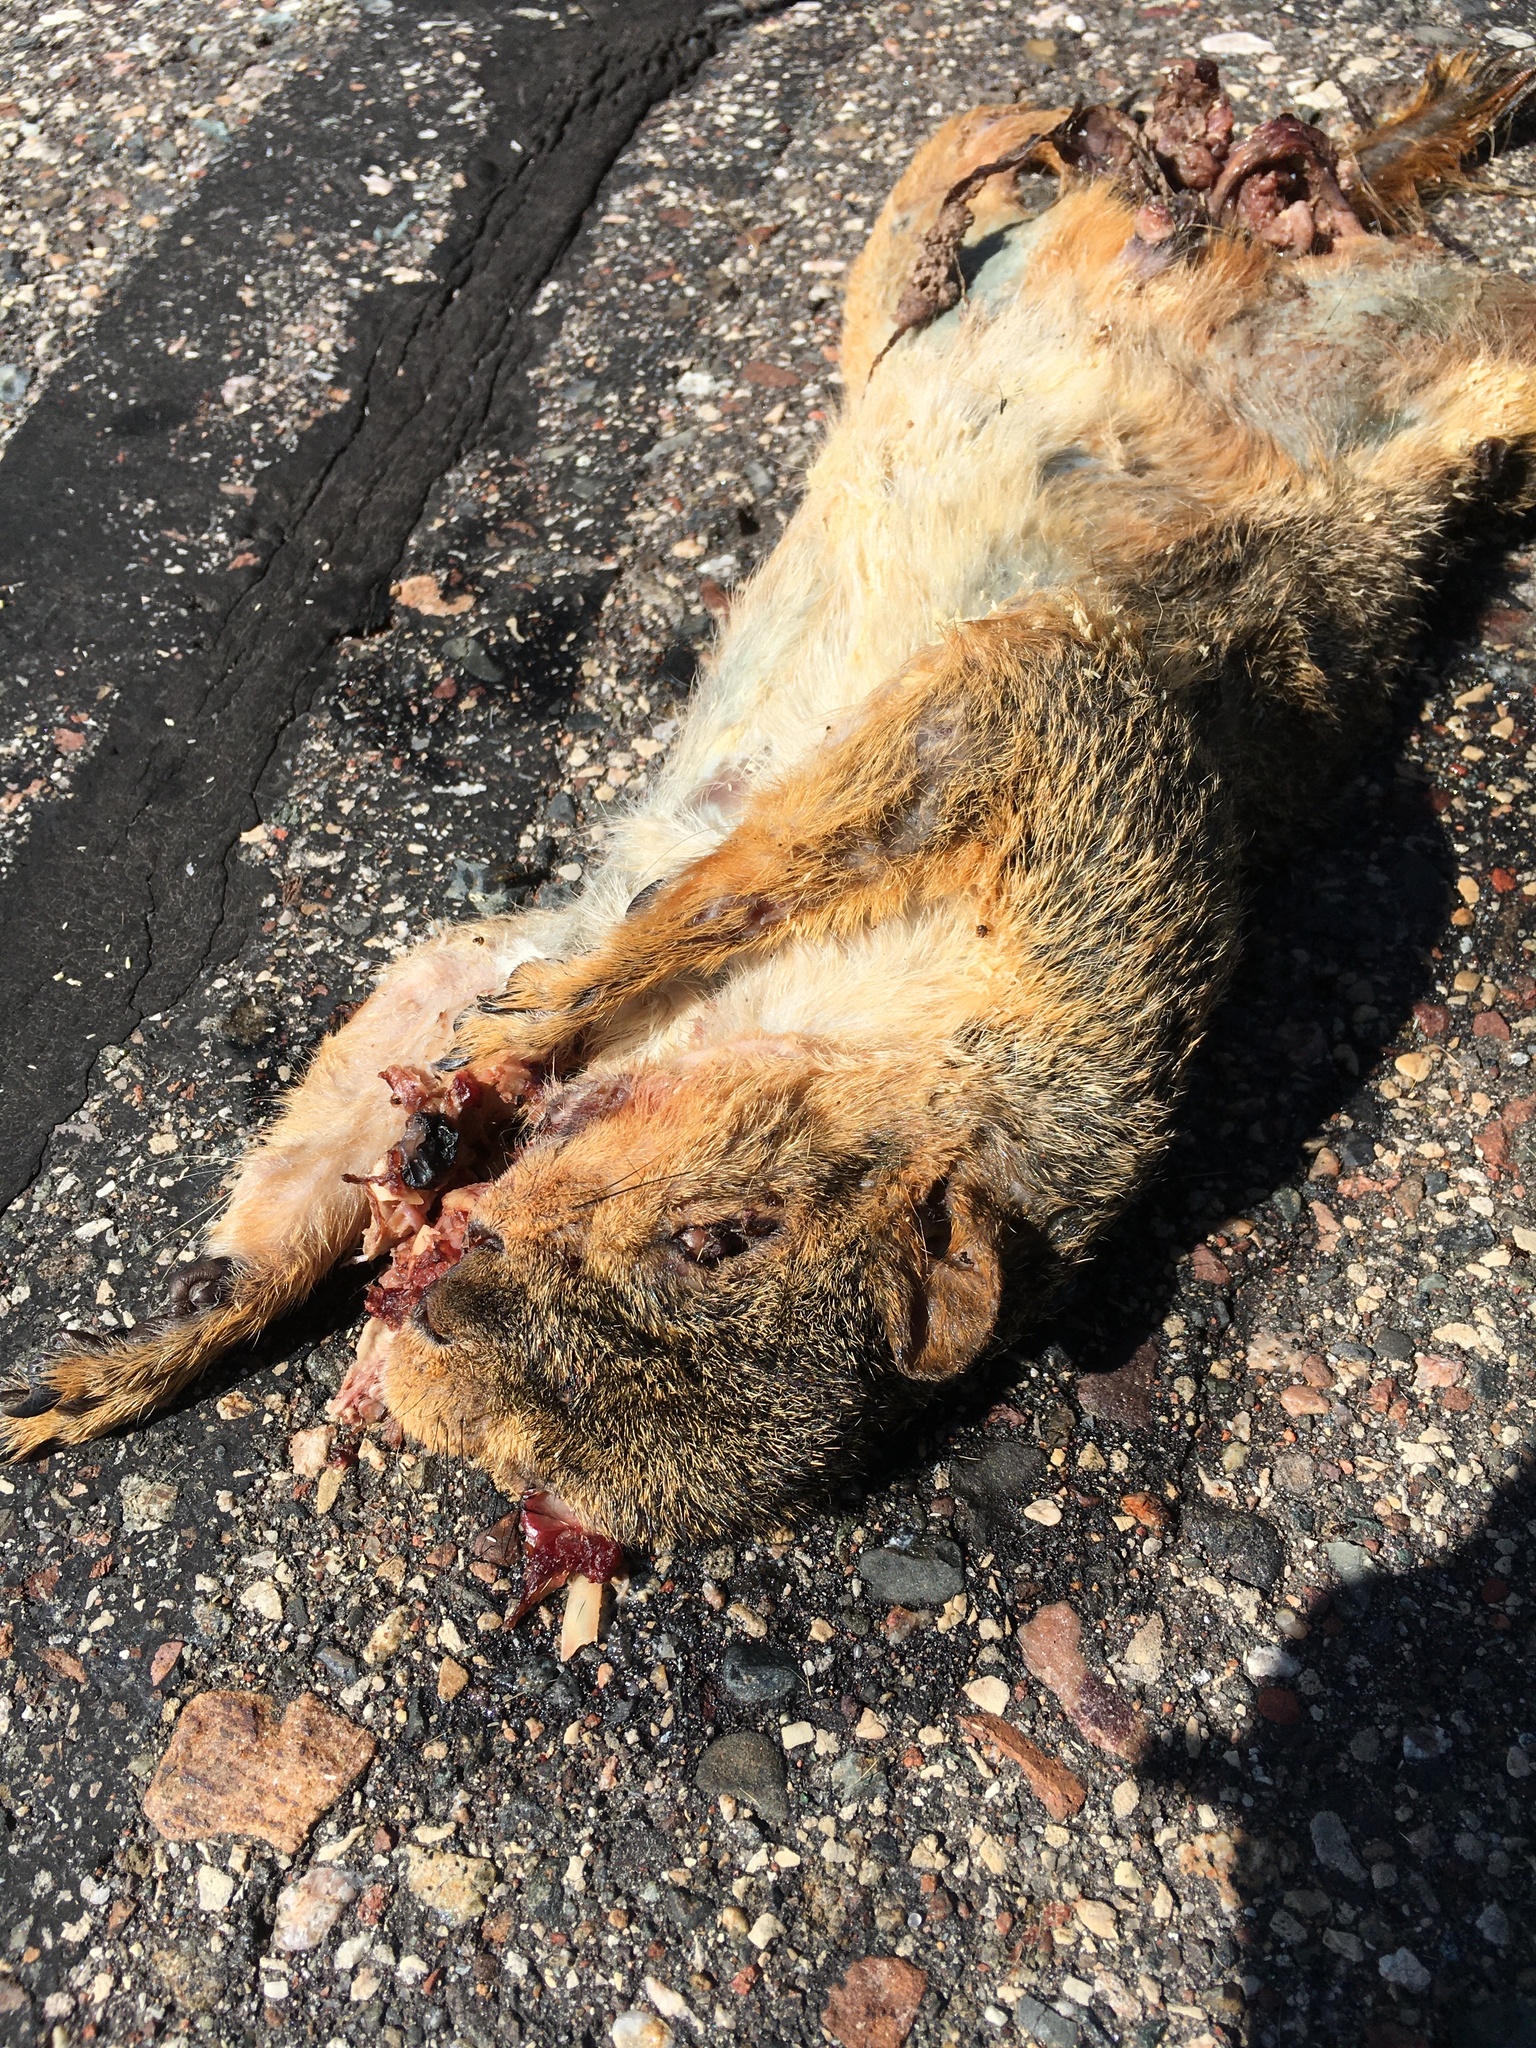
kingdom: Animalia
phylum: Chordata
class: Mammalia
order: Rodentia
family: Sciuridae
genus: Sciurus
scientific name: Sciurus niger
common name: Fox squirrel
